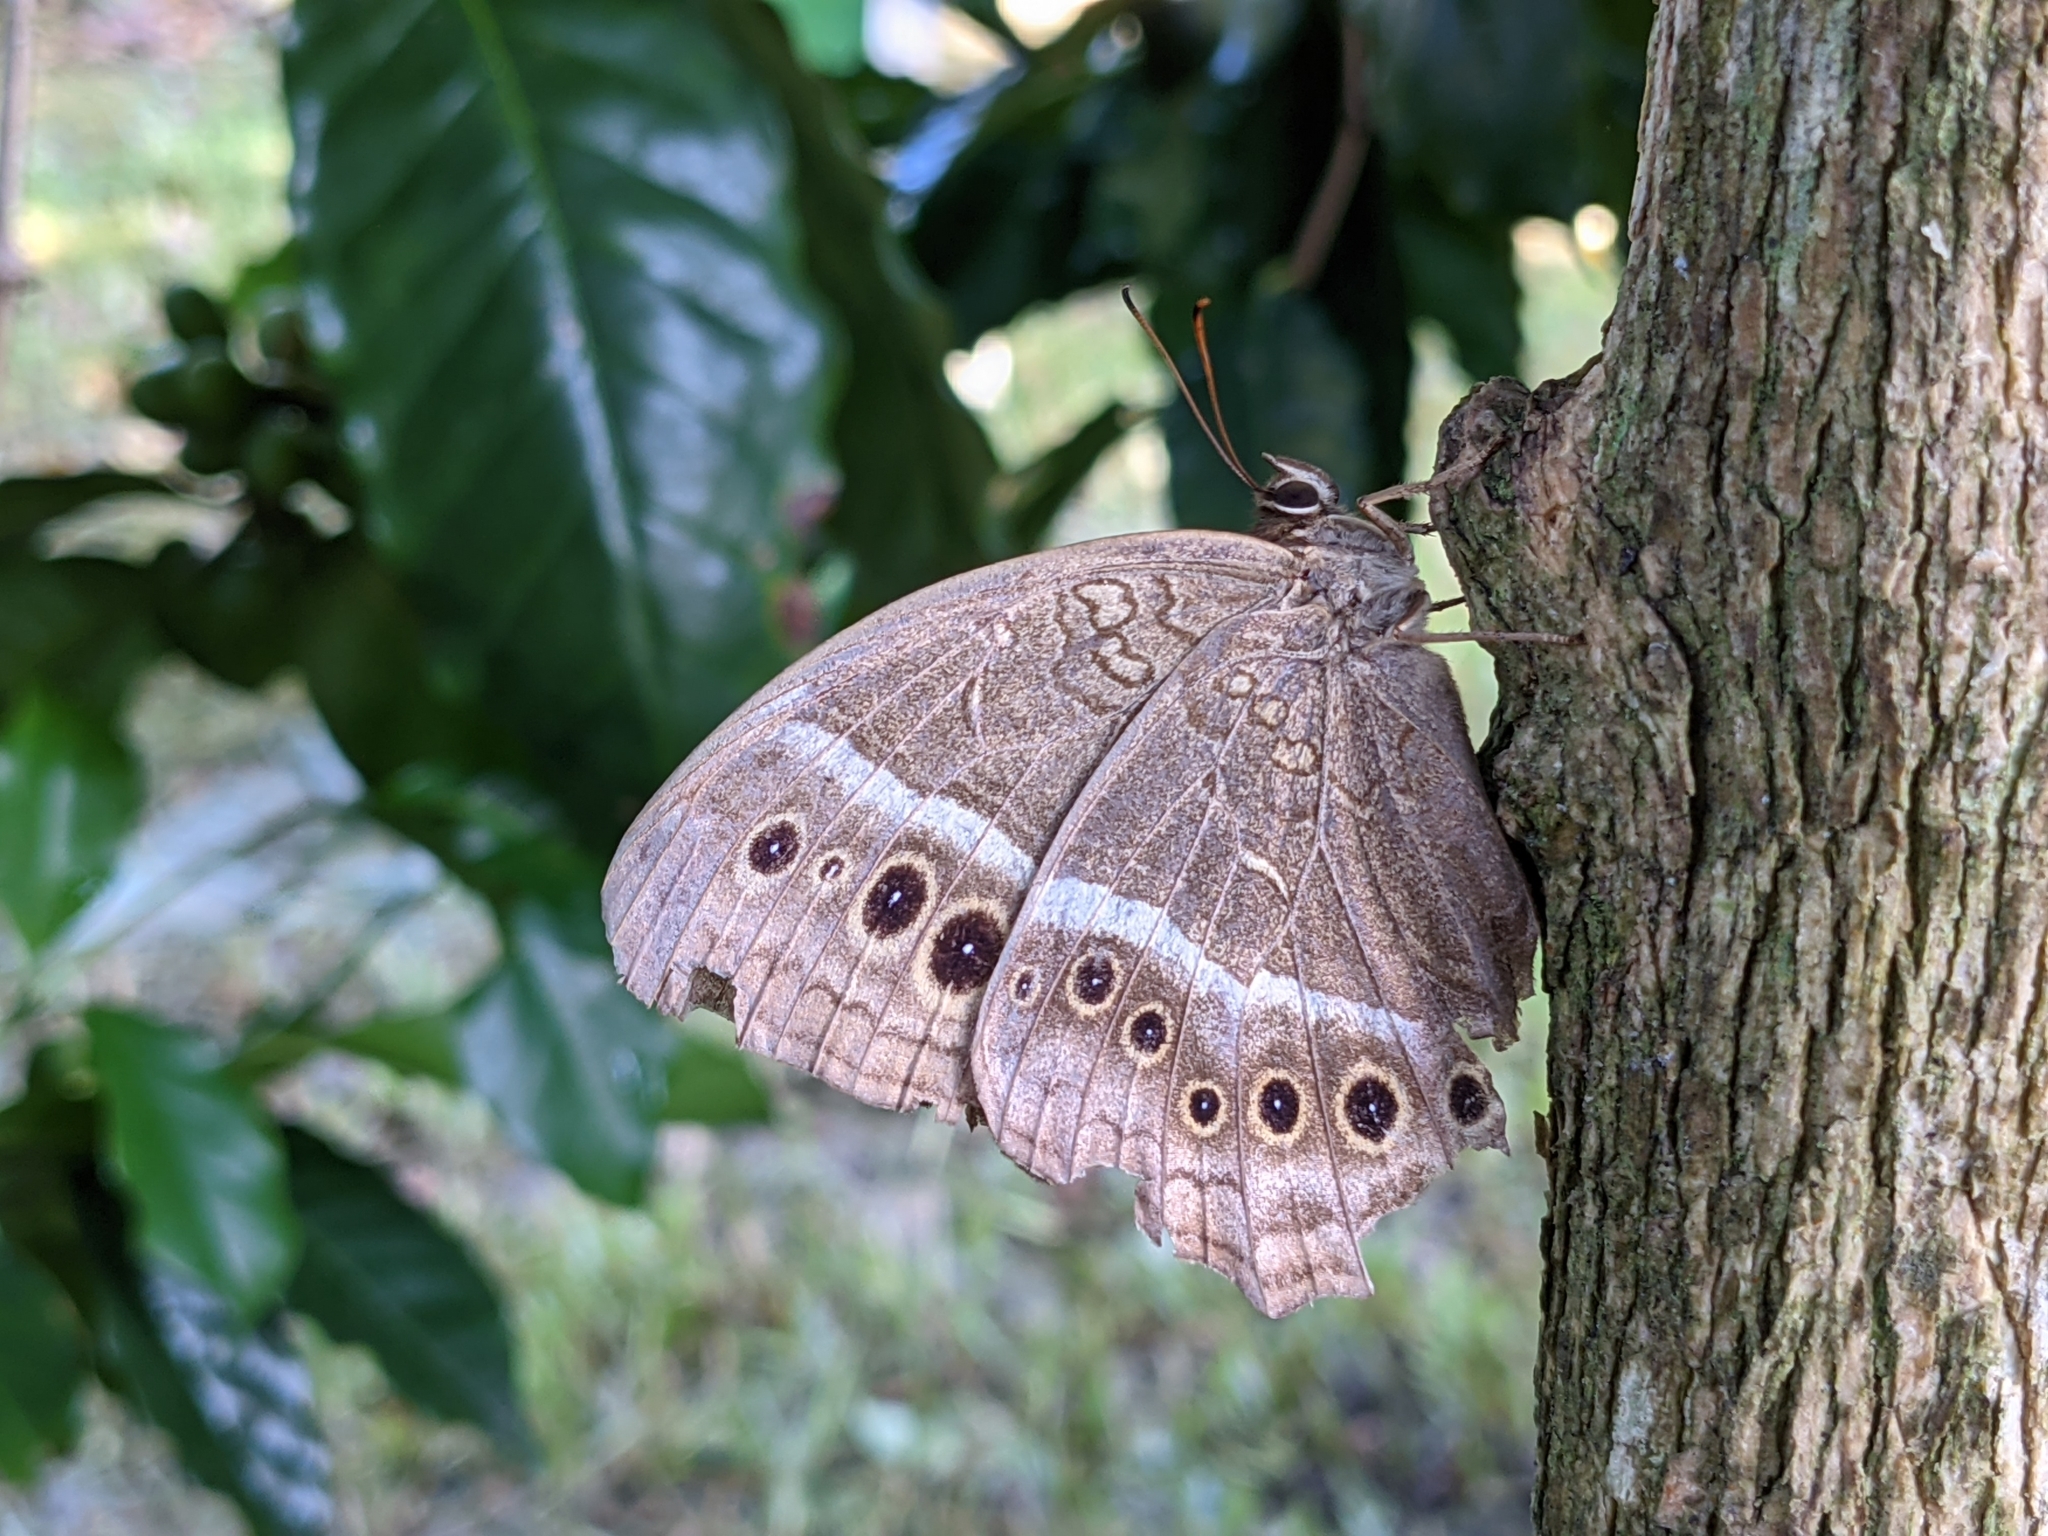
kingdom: Animalia
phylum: Arthropoda
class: Insecta
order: Lepidoptera
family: Nymphalidae
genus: Neope
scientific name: Neope muirheadii
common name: Black-spotted labyrinth
